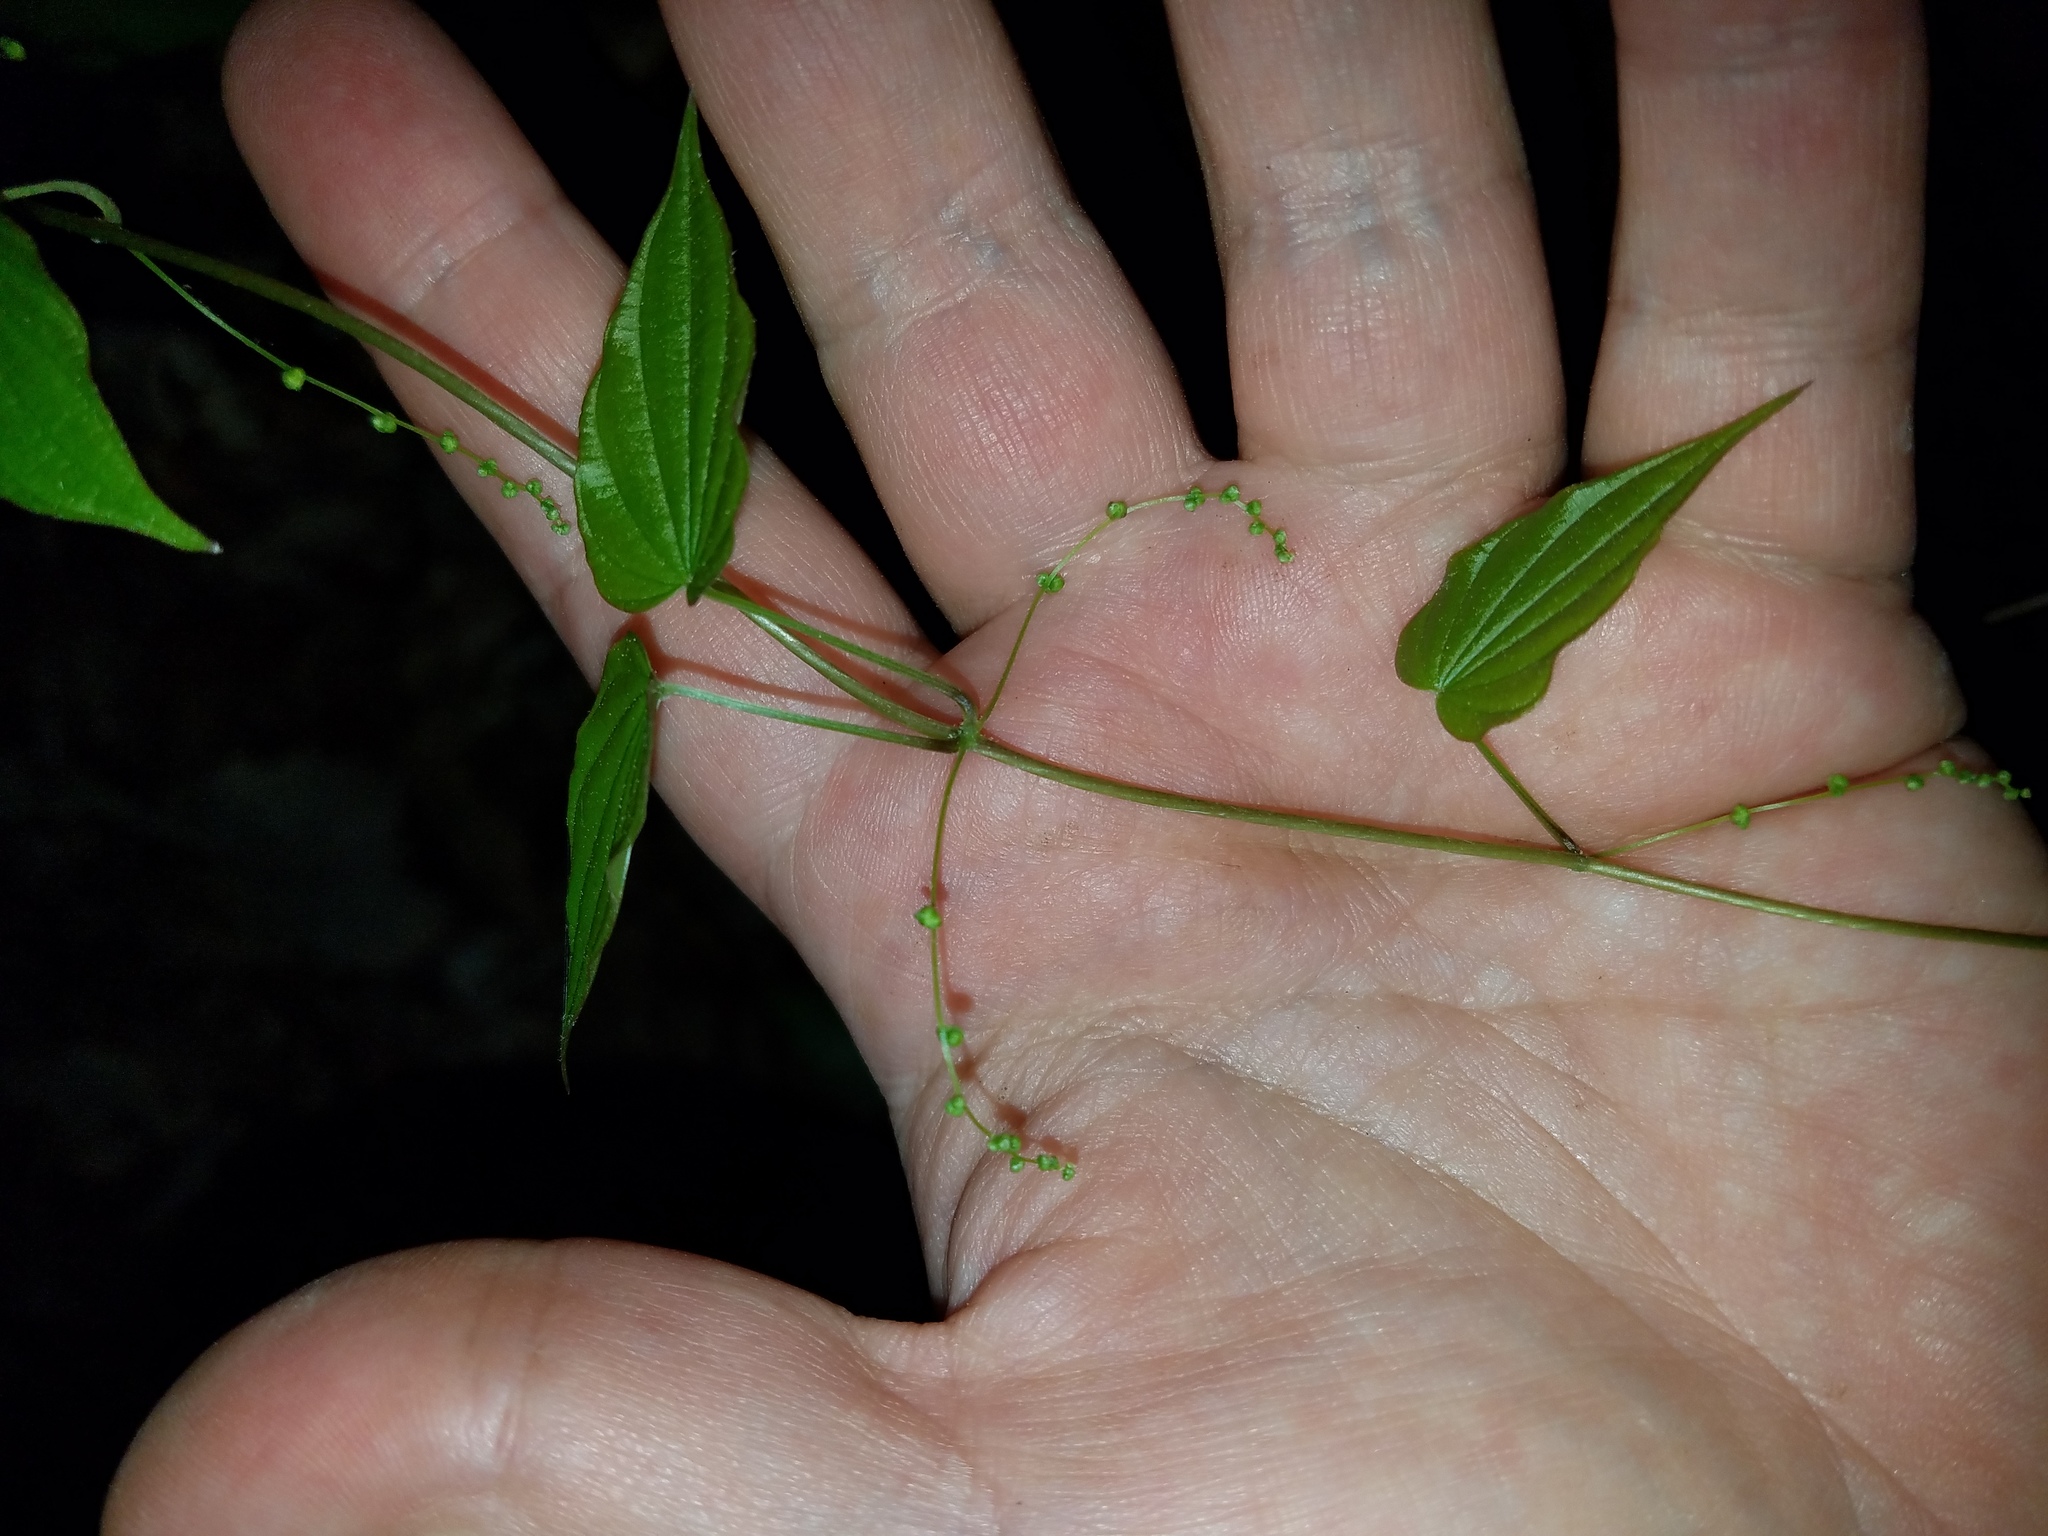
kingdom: Plantae
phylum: Tracheophyta
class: Liliopsida
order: Dioscoreales
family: Dioscoreaceae
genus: Dioscorea
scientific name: Dioscorea villosa
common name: Wild yam
